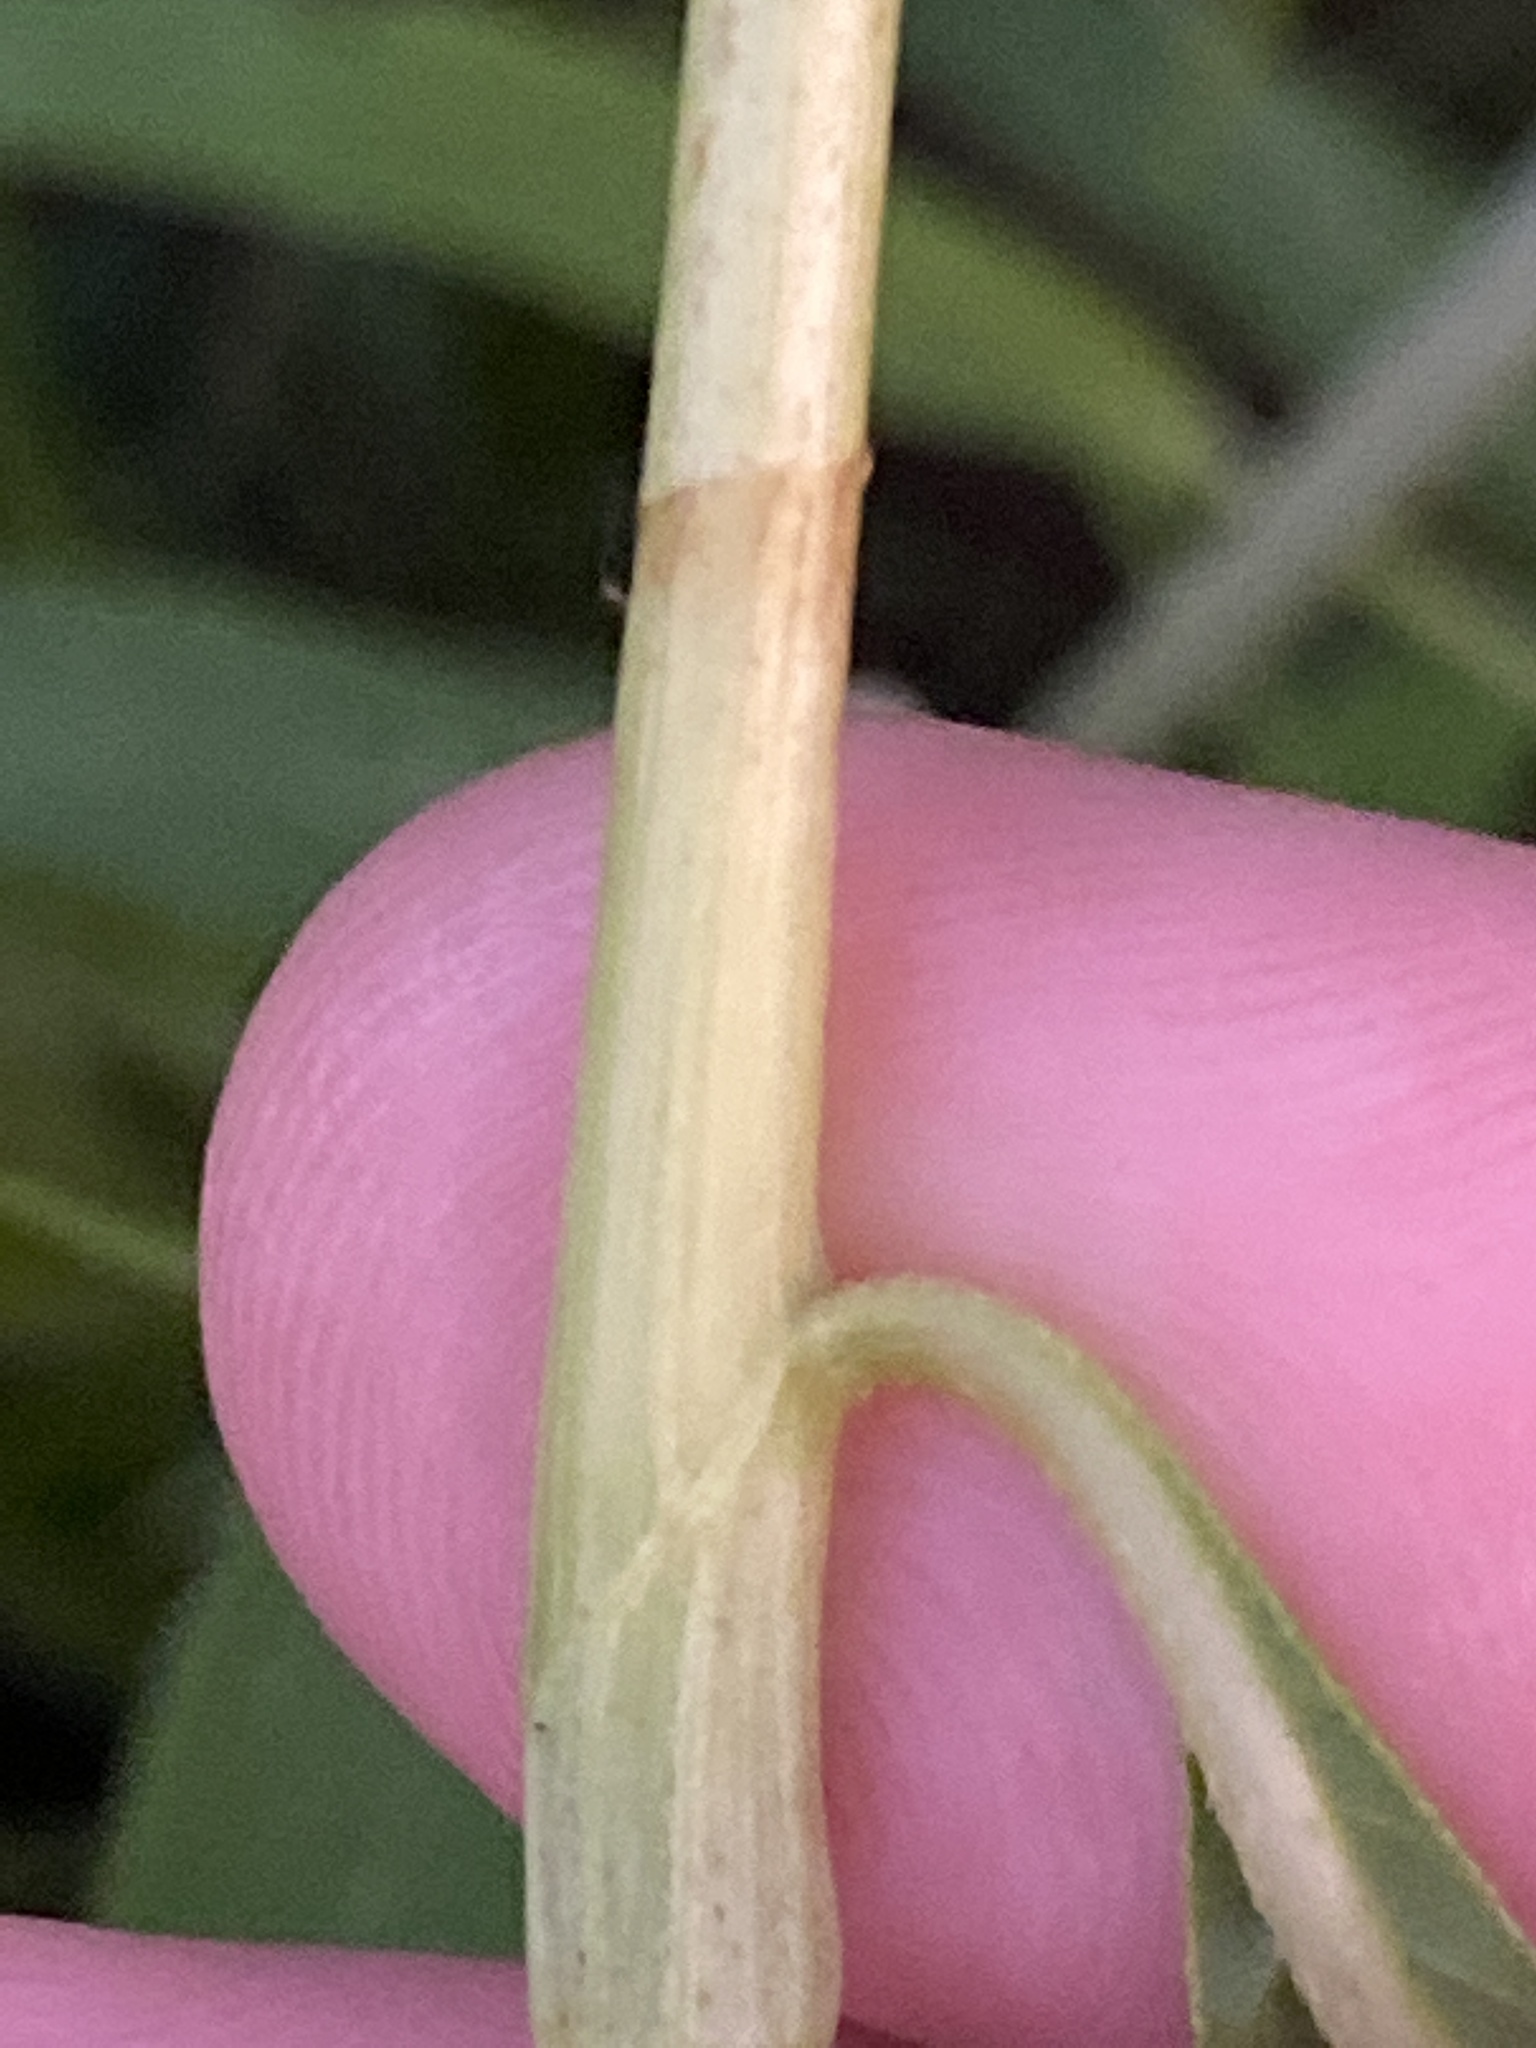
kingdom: Plantae
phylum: Tracheophyta
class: Magnoliopsida
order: Caryophyllales
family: Polygonaceae
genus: Persicaria
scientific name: Persicaria lapathifolia
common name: Curlytop knotweed
